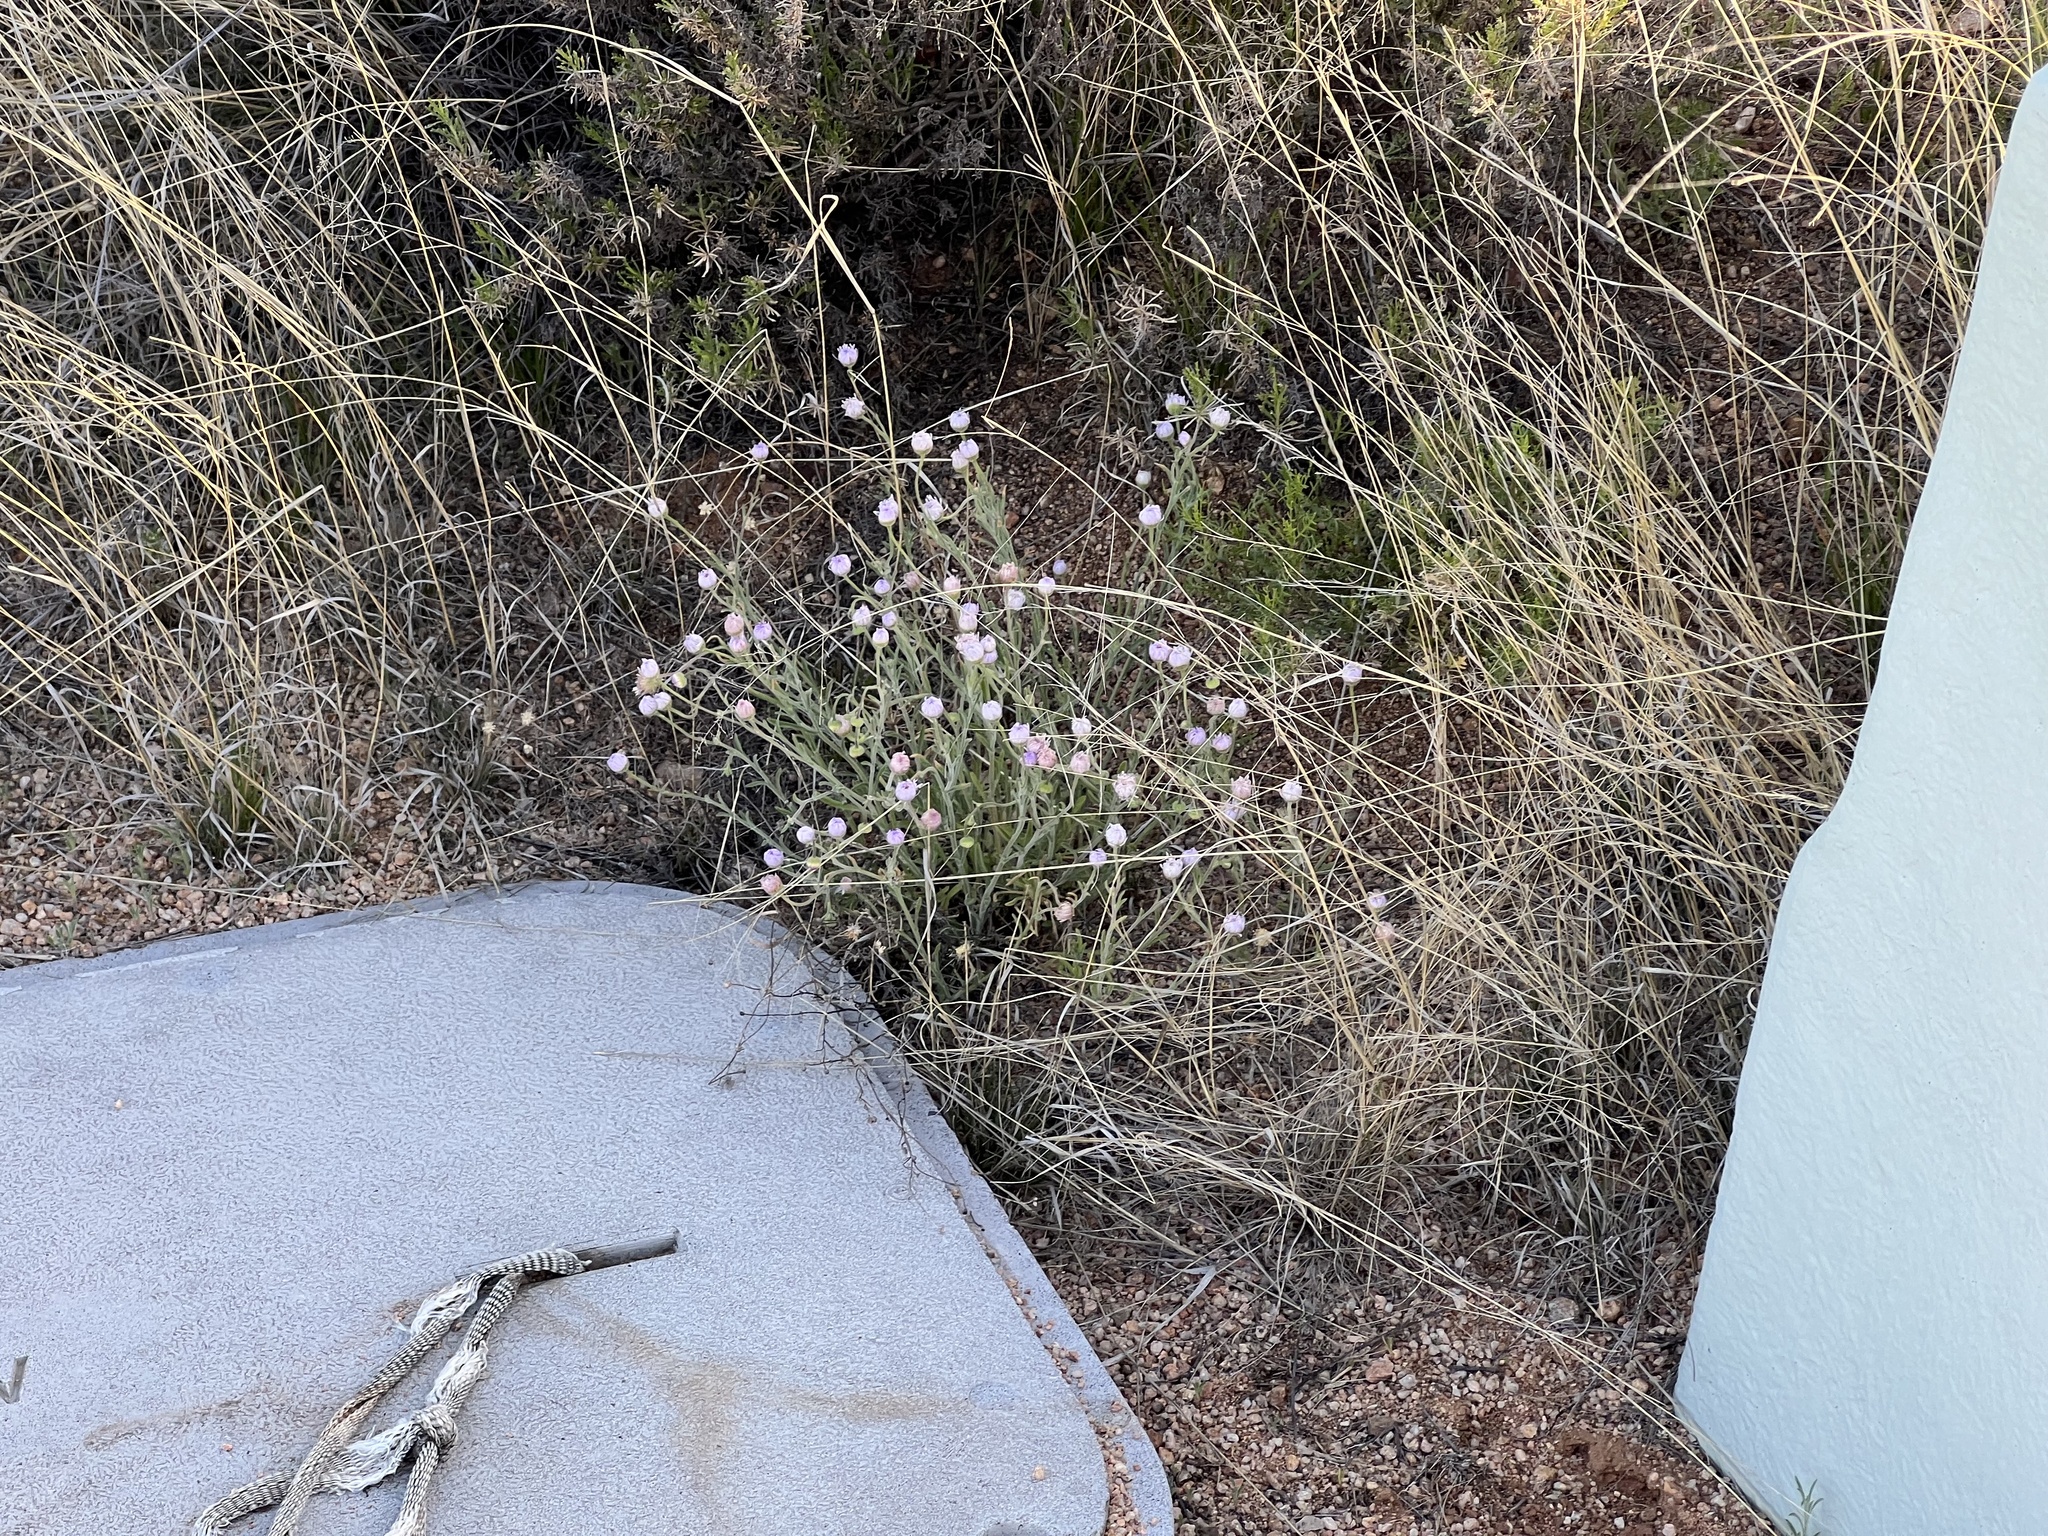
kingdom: Plantae
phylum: Tracheophyta
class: Magnoliopsida
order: Asterales
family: Asteraceae
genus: Erigeron
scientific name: Erigeron divergens
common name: Diffuse fleabane
